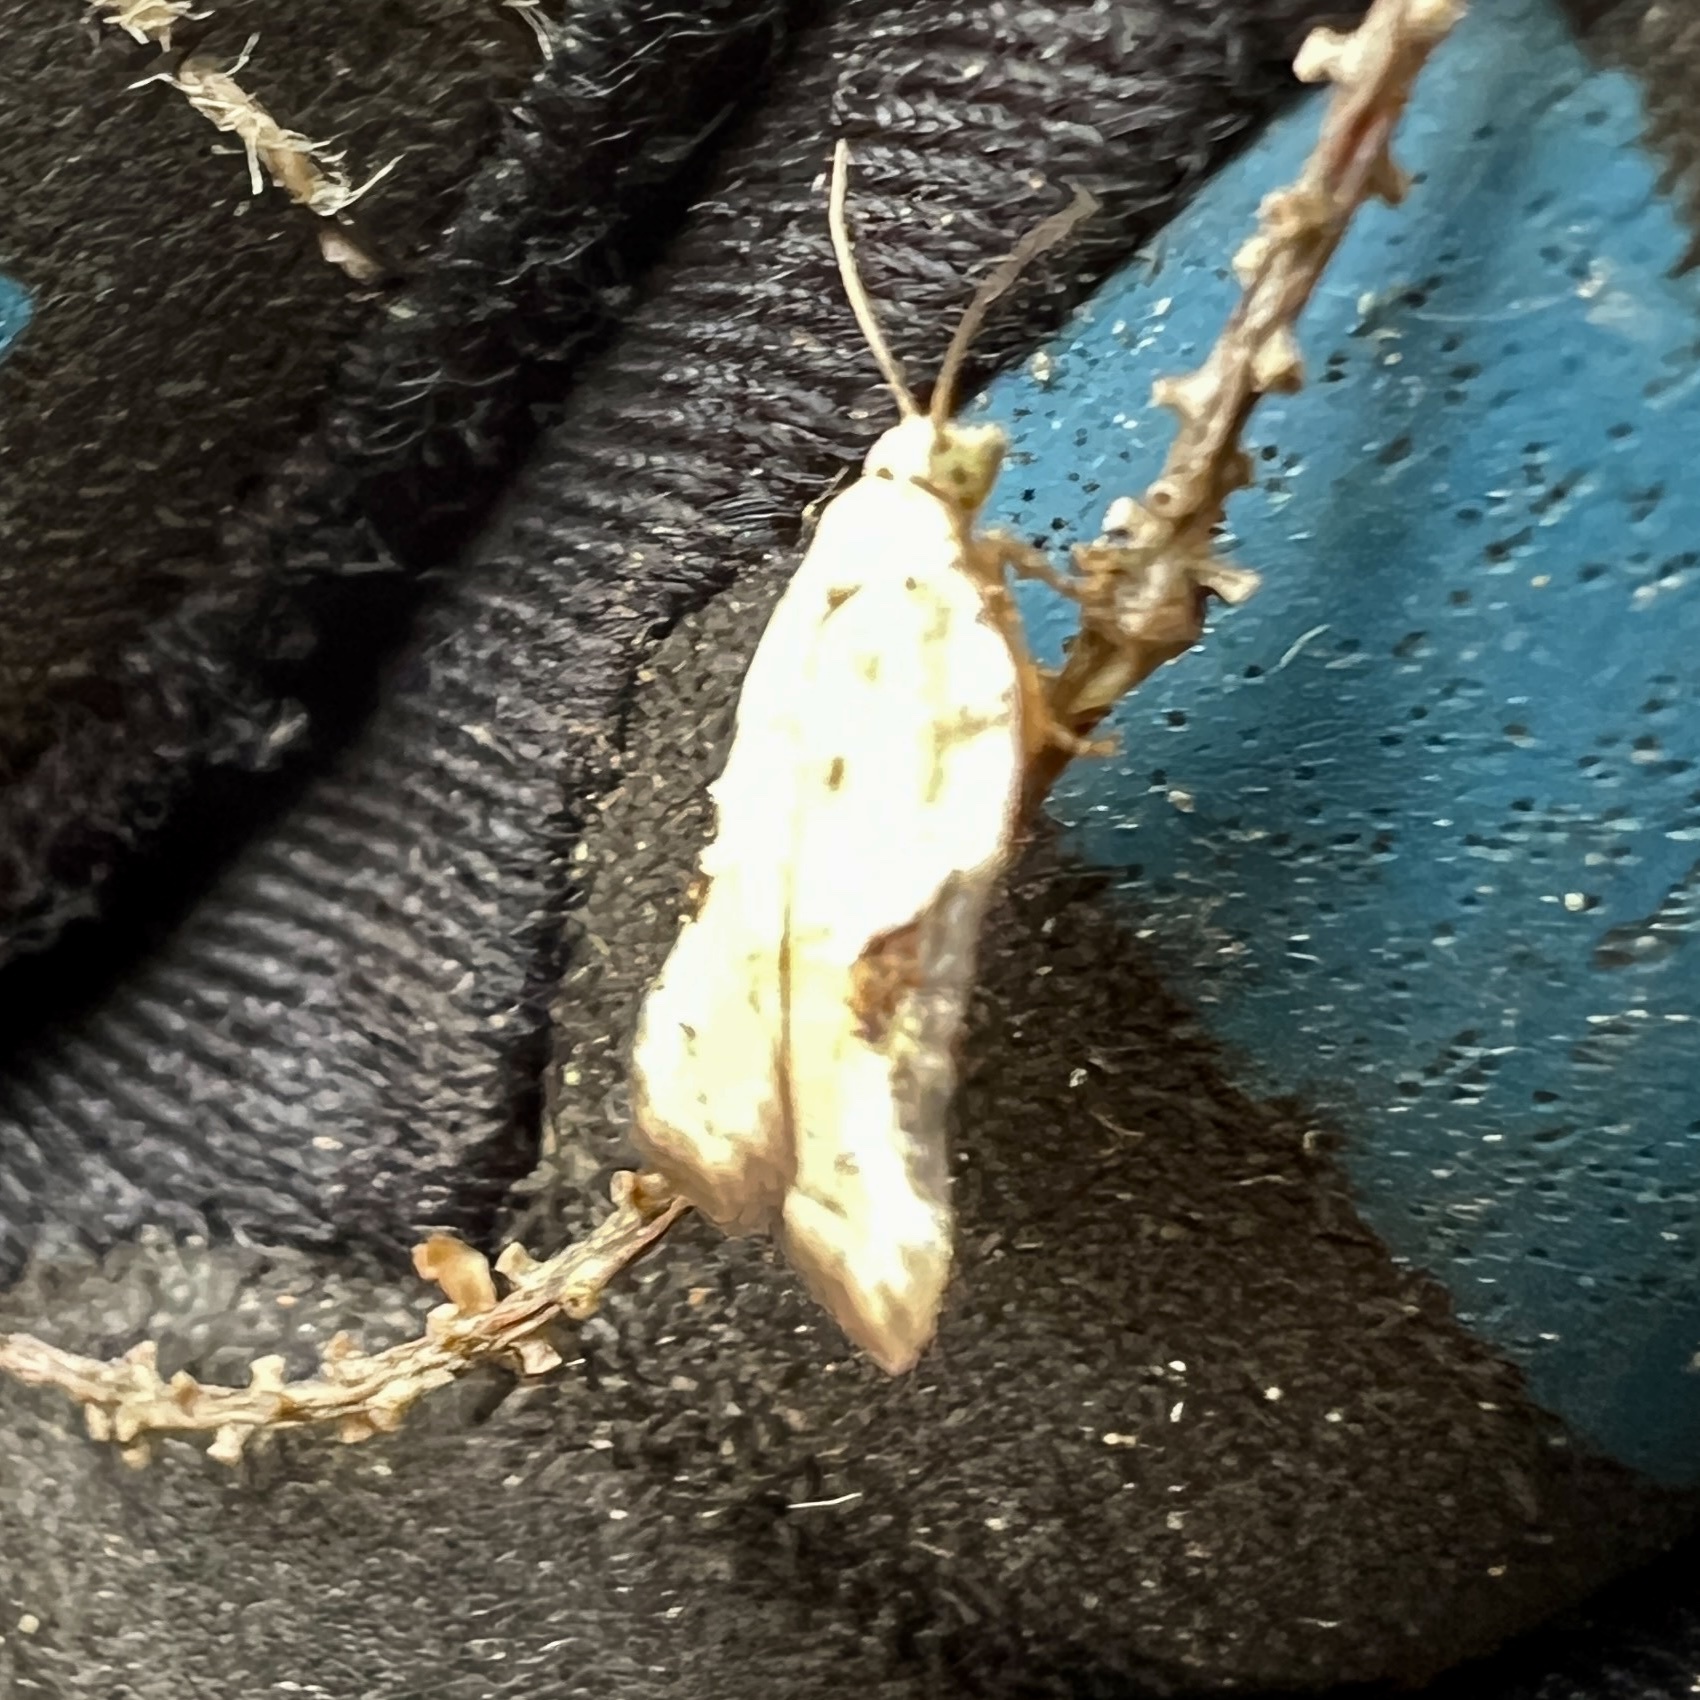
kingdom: Animalia
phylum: Arthropoda
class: Insecta
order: Lepidoptera
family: Tortricidae
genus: Acleris
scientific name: Acleris subnivana
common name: Bent-winged acleris moth
